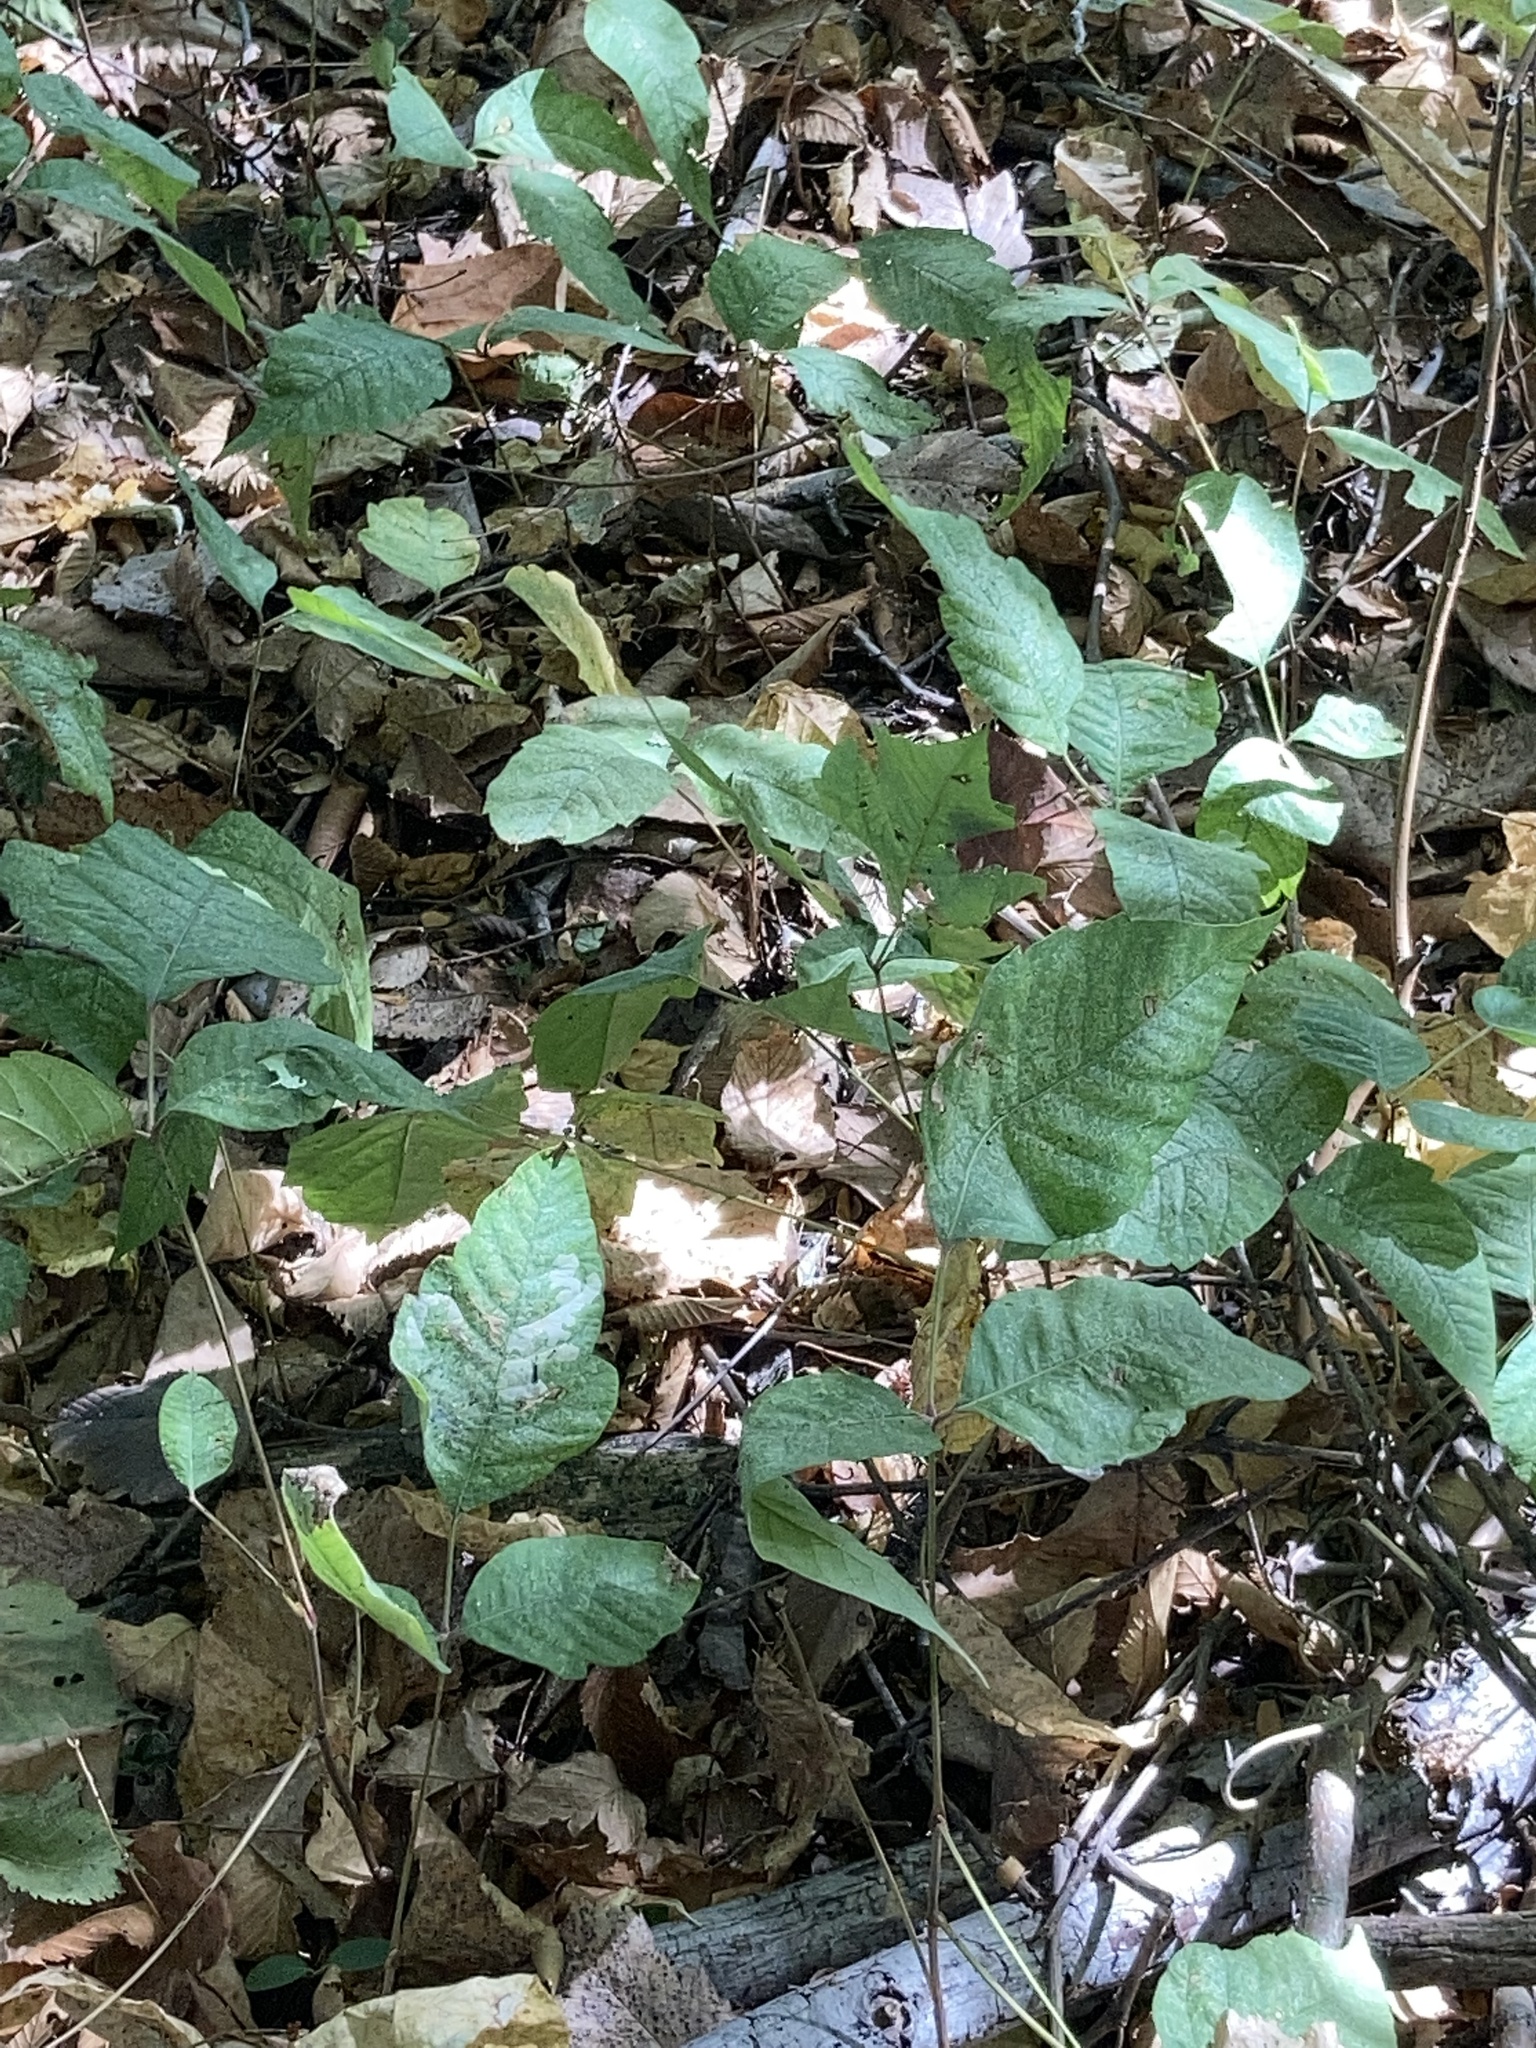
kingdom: Plantae
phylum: Tracheophyta
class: Magnoliopsida
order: Sapindales
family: Anacardiaceae
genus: Toxicodendron
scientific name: Toxicodendron radicans
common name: Poison ivy
